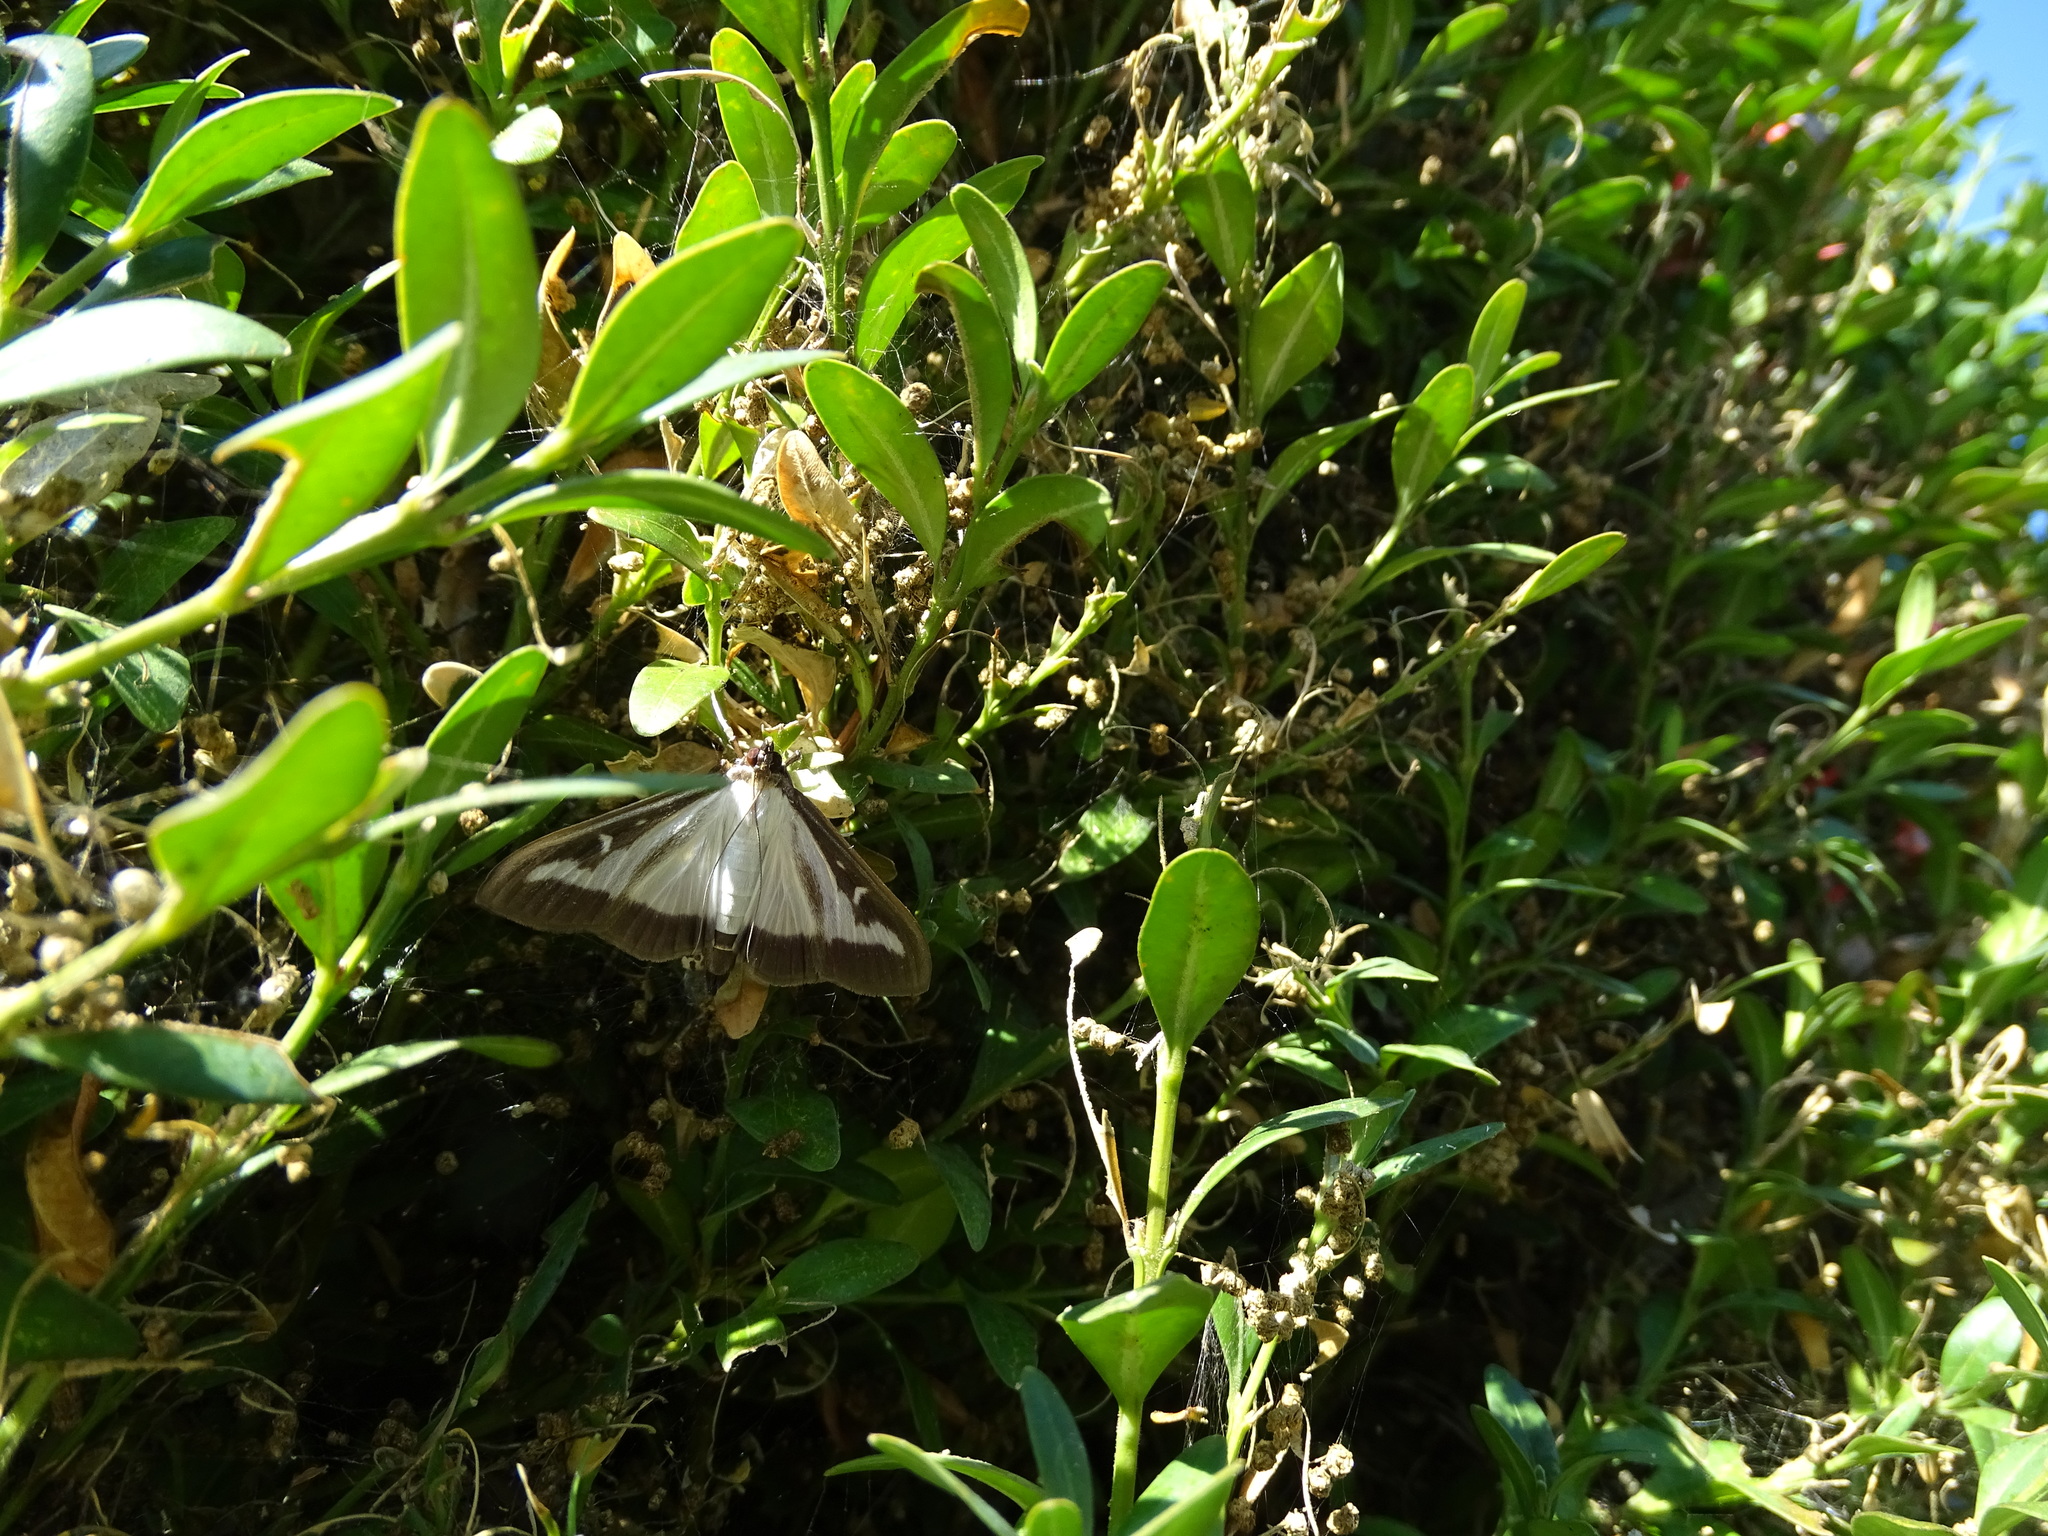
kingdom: Animalia
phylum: Arthropoda
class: Insecta
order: Lepidoptera
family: Crambidae
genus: Cydalima
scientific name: Cydalima perspectalis
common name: Box tree moth
